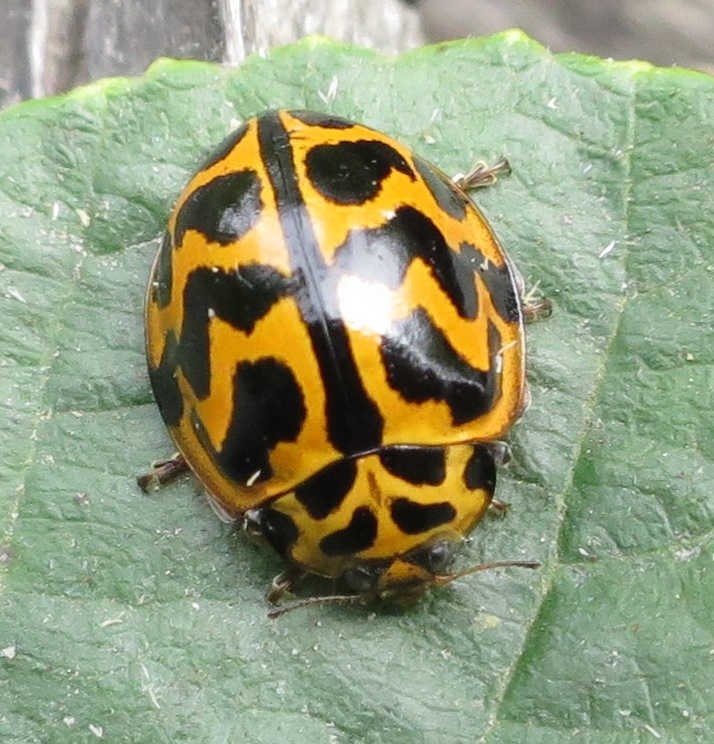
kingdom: Animalia
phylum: Arthropoda
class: Insecta
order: Coleoptera
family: Coccinellidae
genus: Cleobora
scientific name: Cleobora
